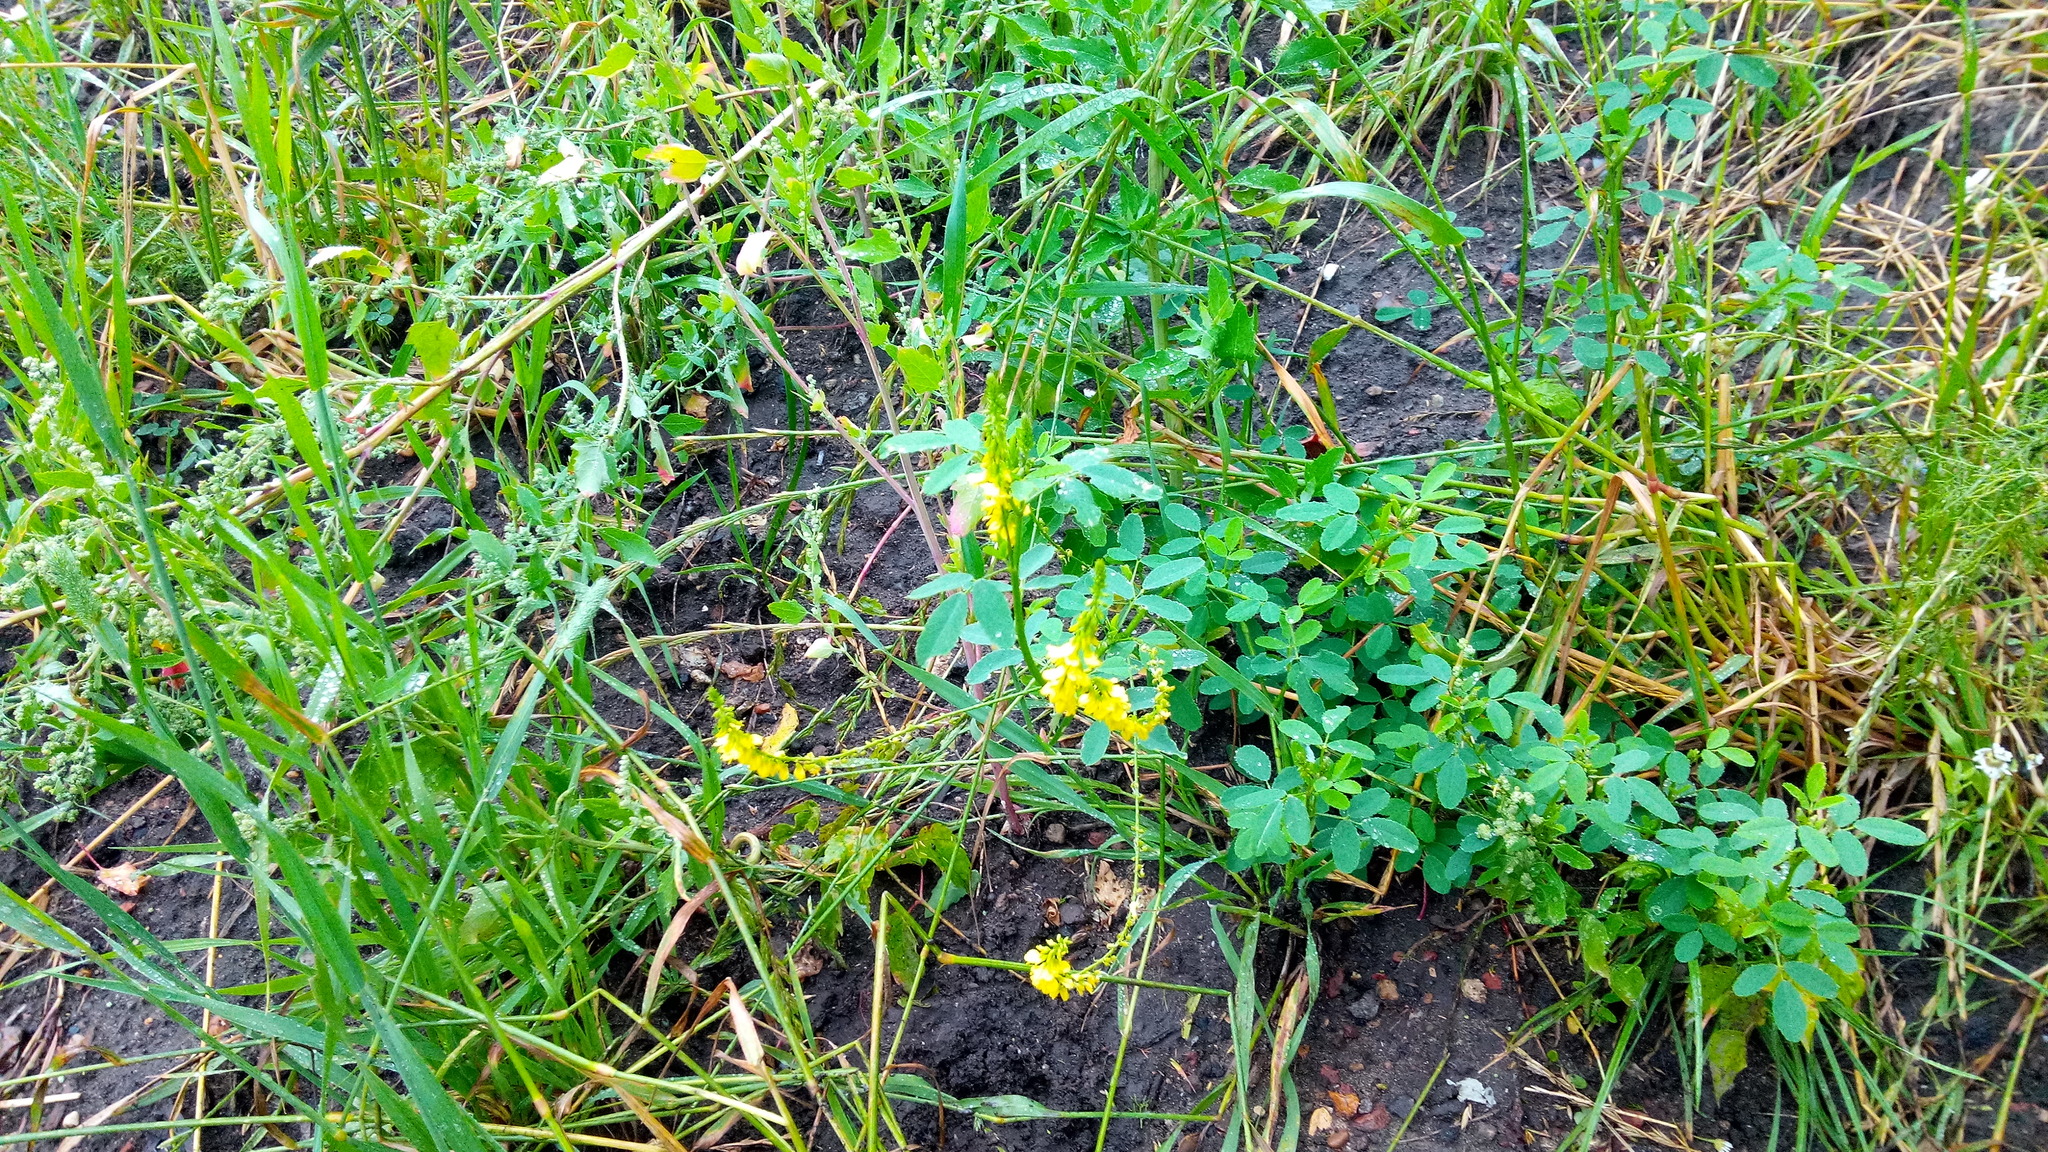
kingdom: Plantae
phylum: Tracheophyta
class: Magnoliopsida
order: Fabales
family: Fabaceae
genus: Melilotus
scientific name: Melilotus officinalis
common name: Sweetclover
